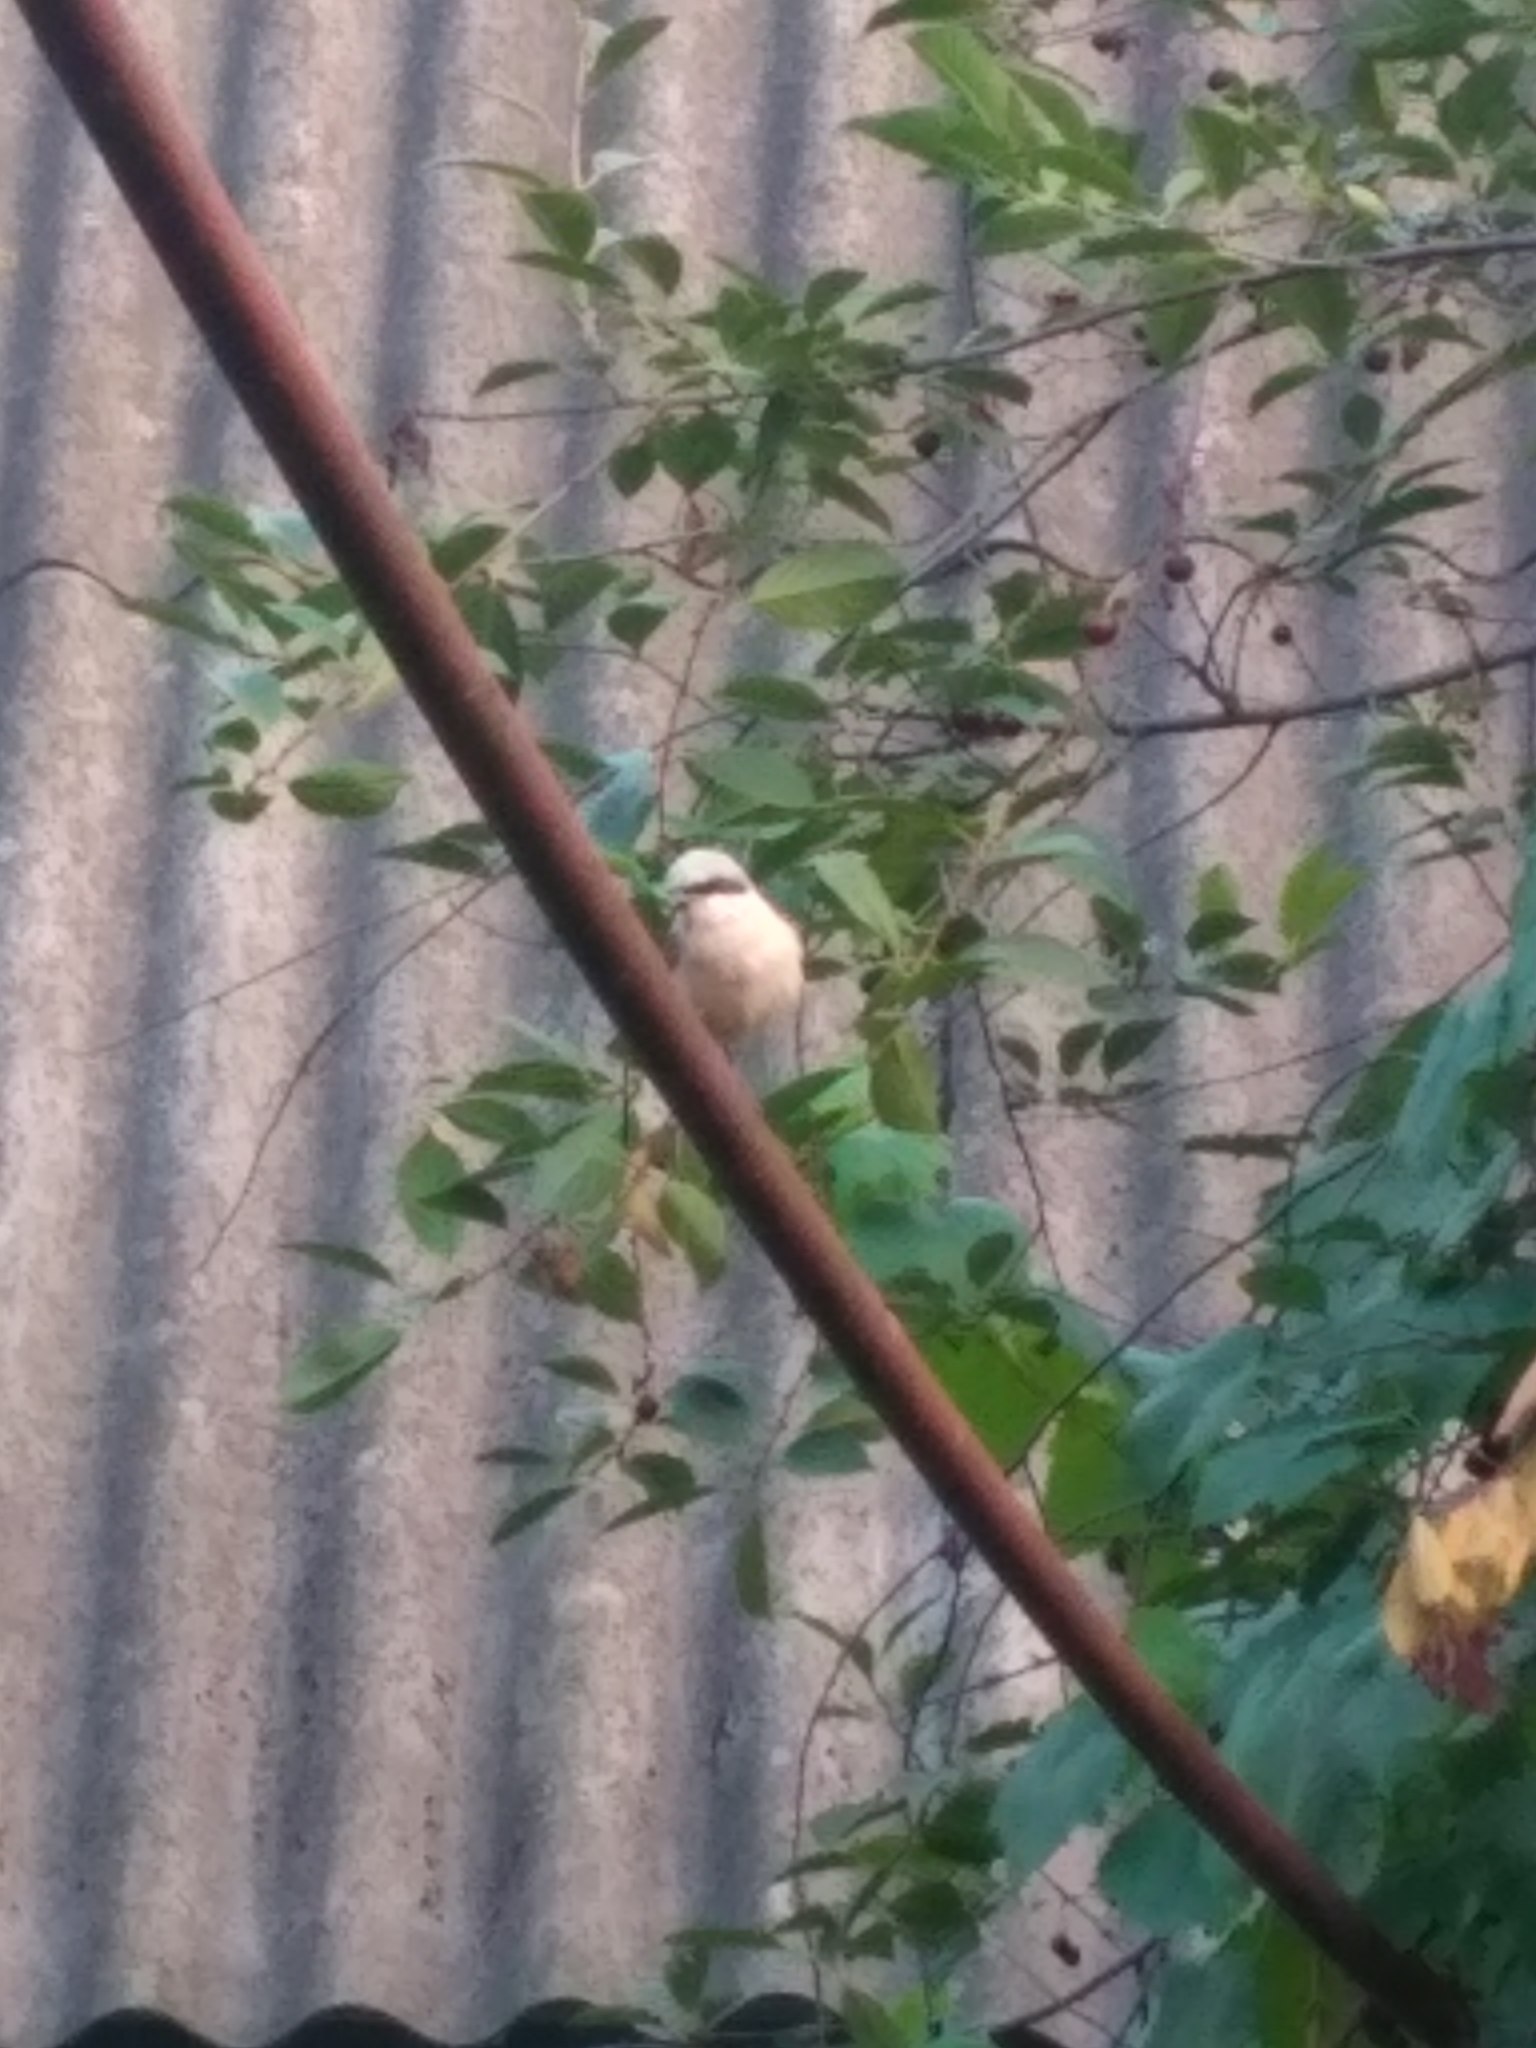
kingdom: Animalia
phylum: Chordata
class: Aves
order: Passeriformes
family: Laniidae
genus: Lanius
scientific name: Lanius collurio
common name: Red-backed shrike
